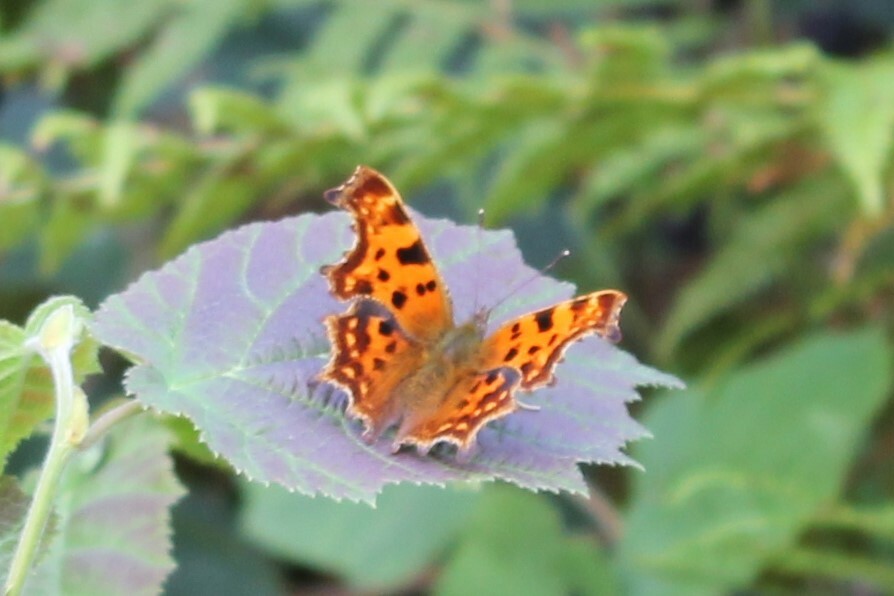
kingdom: Animalia
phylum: Arthropoda
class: Insecta
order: Lepidoptera
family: Nymphalidae
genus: Polygonia
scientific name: Polygonia c-album
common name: Comma
